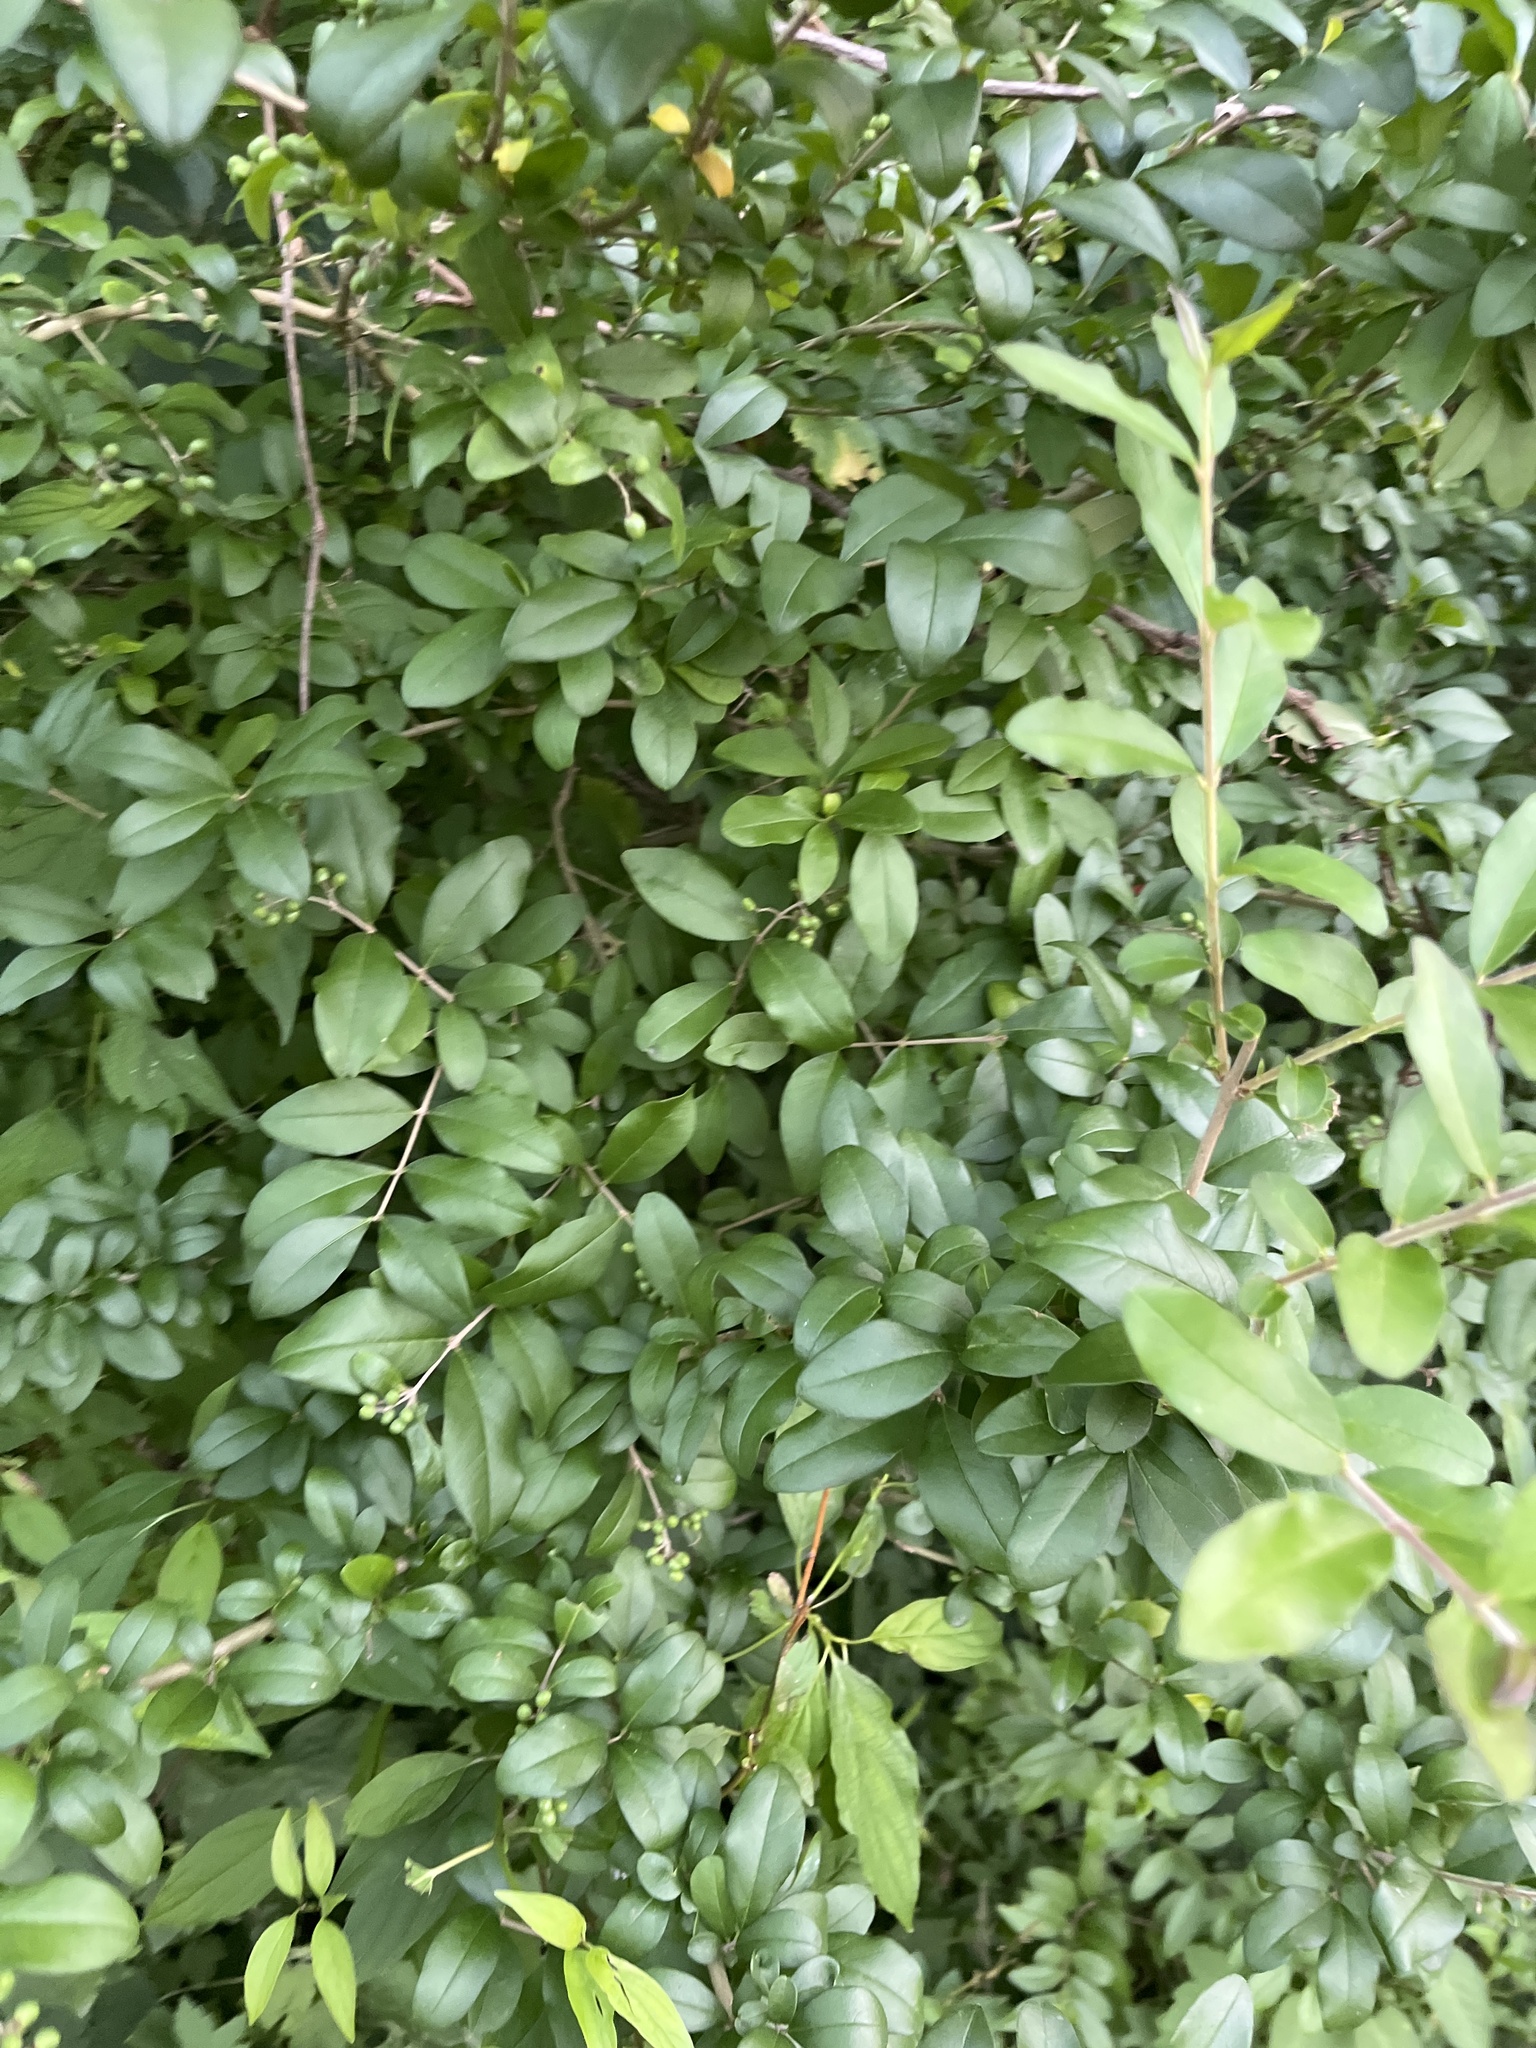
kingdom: Plantae
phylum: Tracheophyta
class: Magnoliopsida
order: Lamiales
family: Oleaceae
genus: Ligustrum
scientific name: Ligustrum obtusifolium
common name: Border privet
